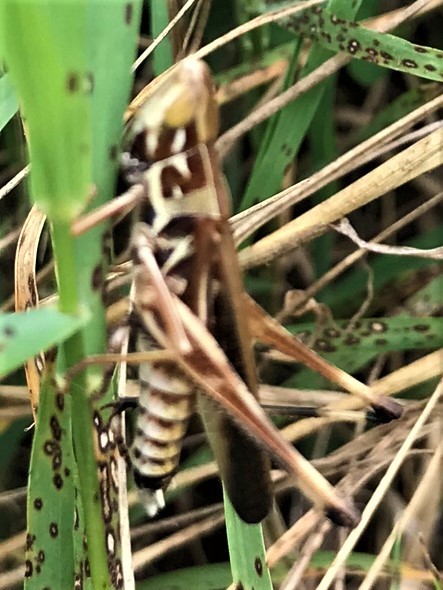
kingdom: Animalia
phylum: Arthropoda
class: Insecta
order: Orthoptera
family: Acrididae
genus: Syrbula
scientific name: Syrbula admirabilis
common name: Handsome grasshopper
